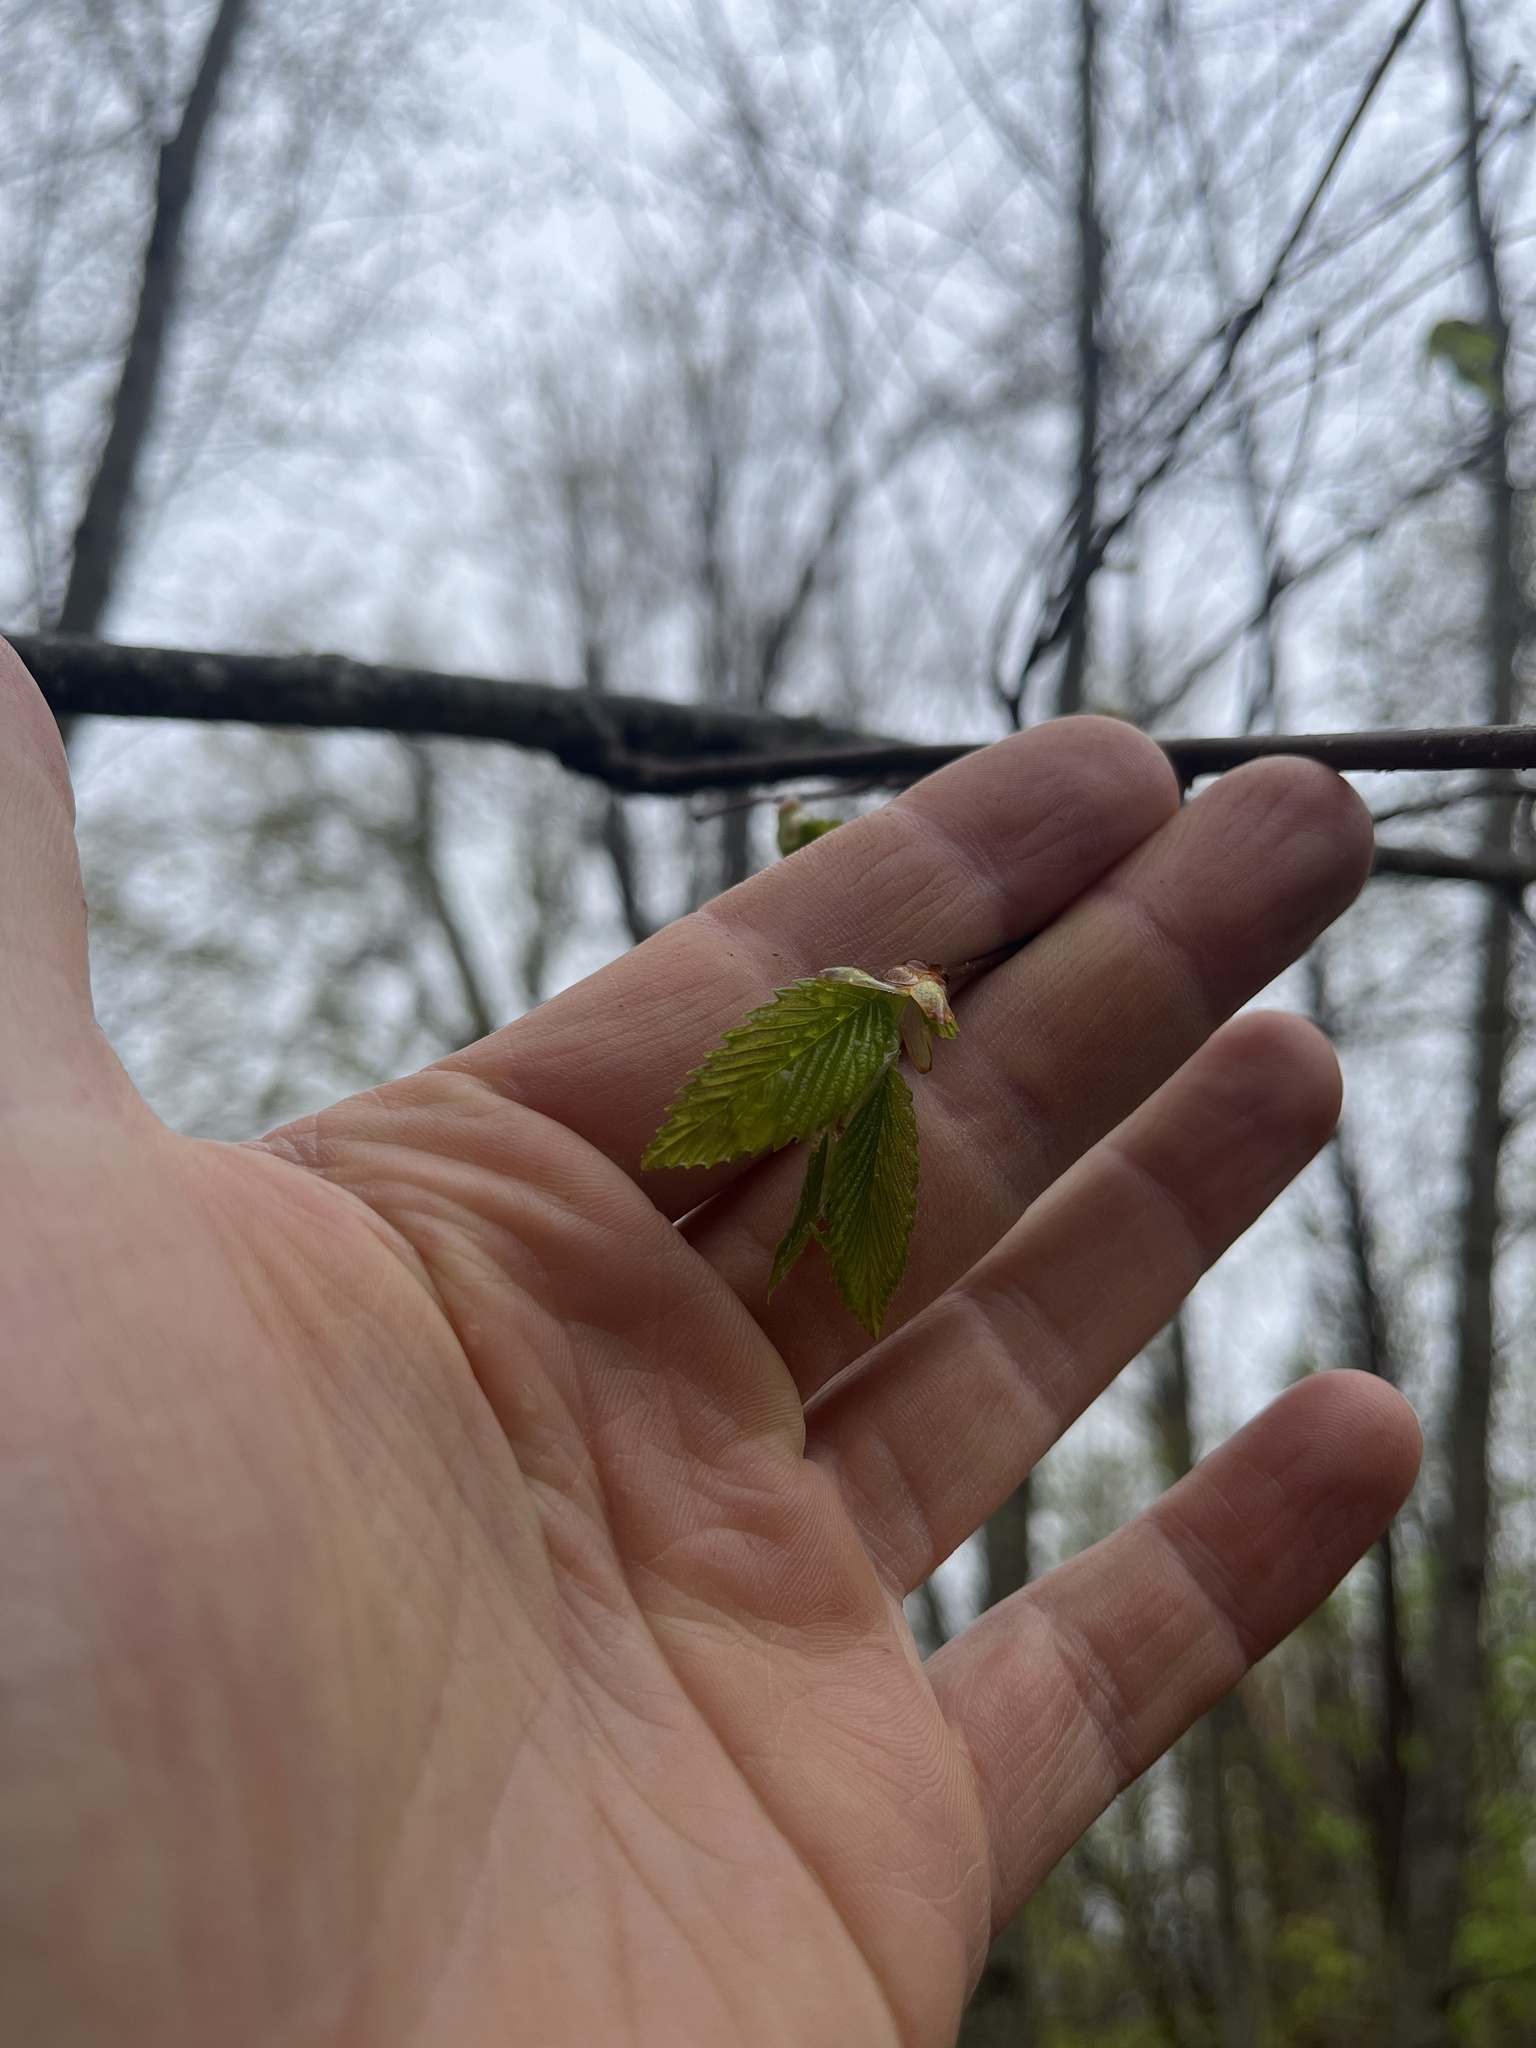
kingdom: Plantae
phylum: Tracheophyta
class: Magnoliopsida
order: Rosales
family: Ulmaceae
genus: Ulmus
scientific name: Ulmus americana
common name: American elm
